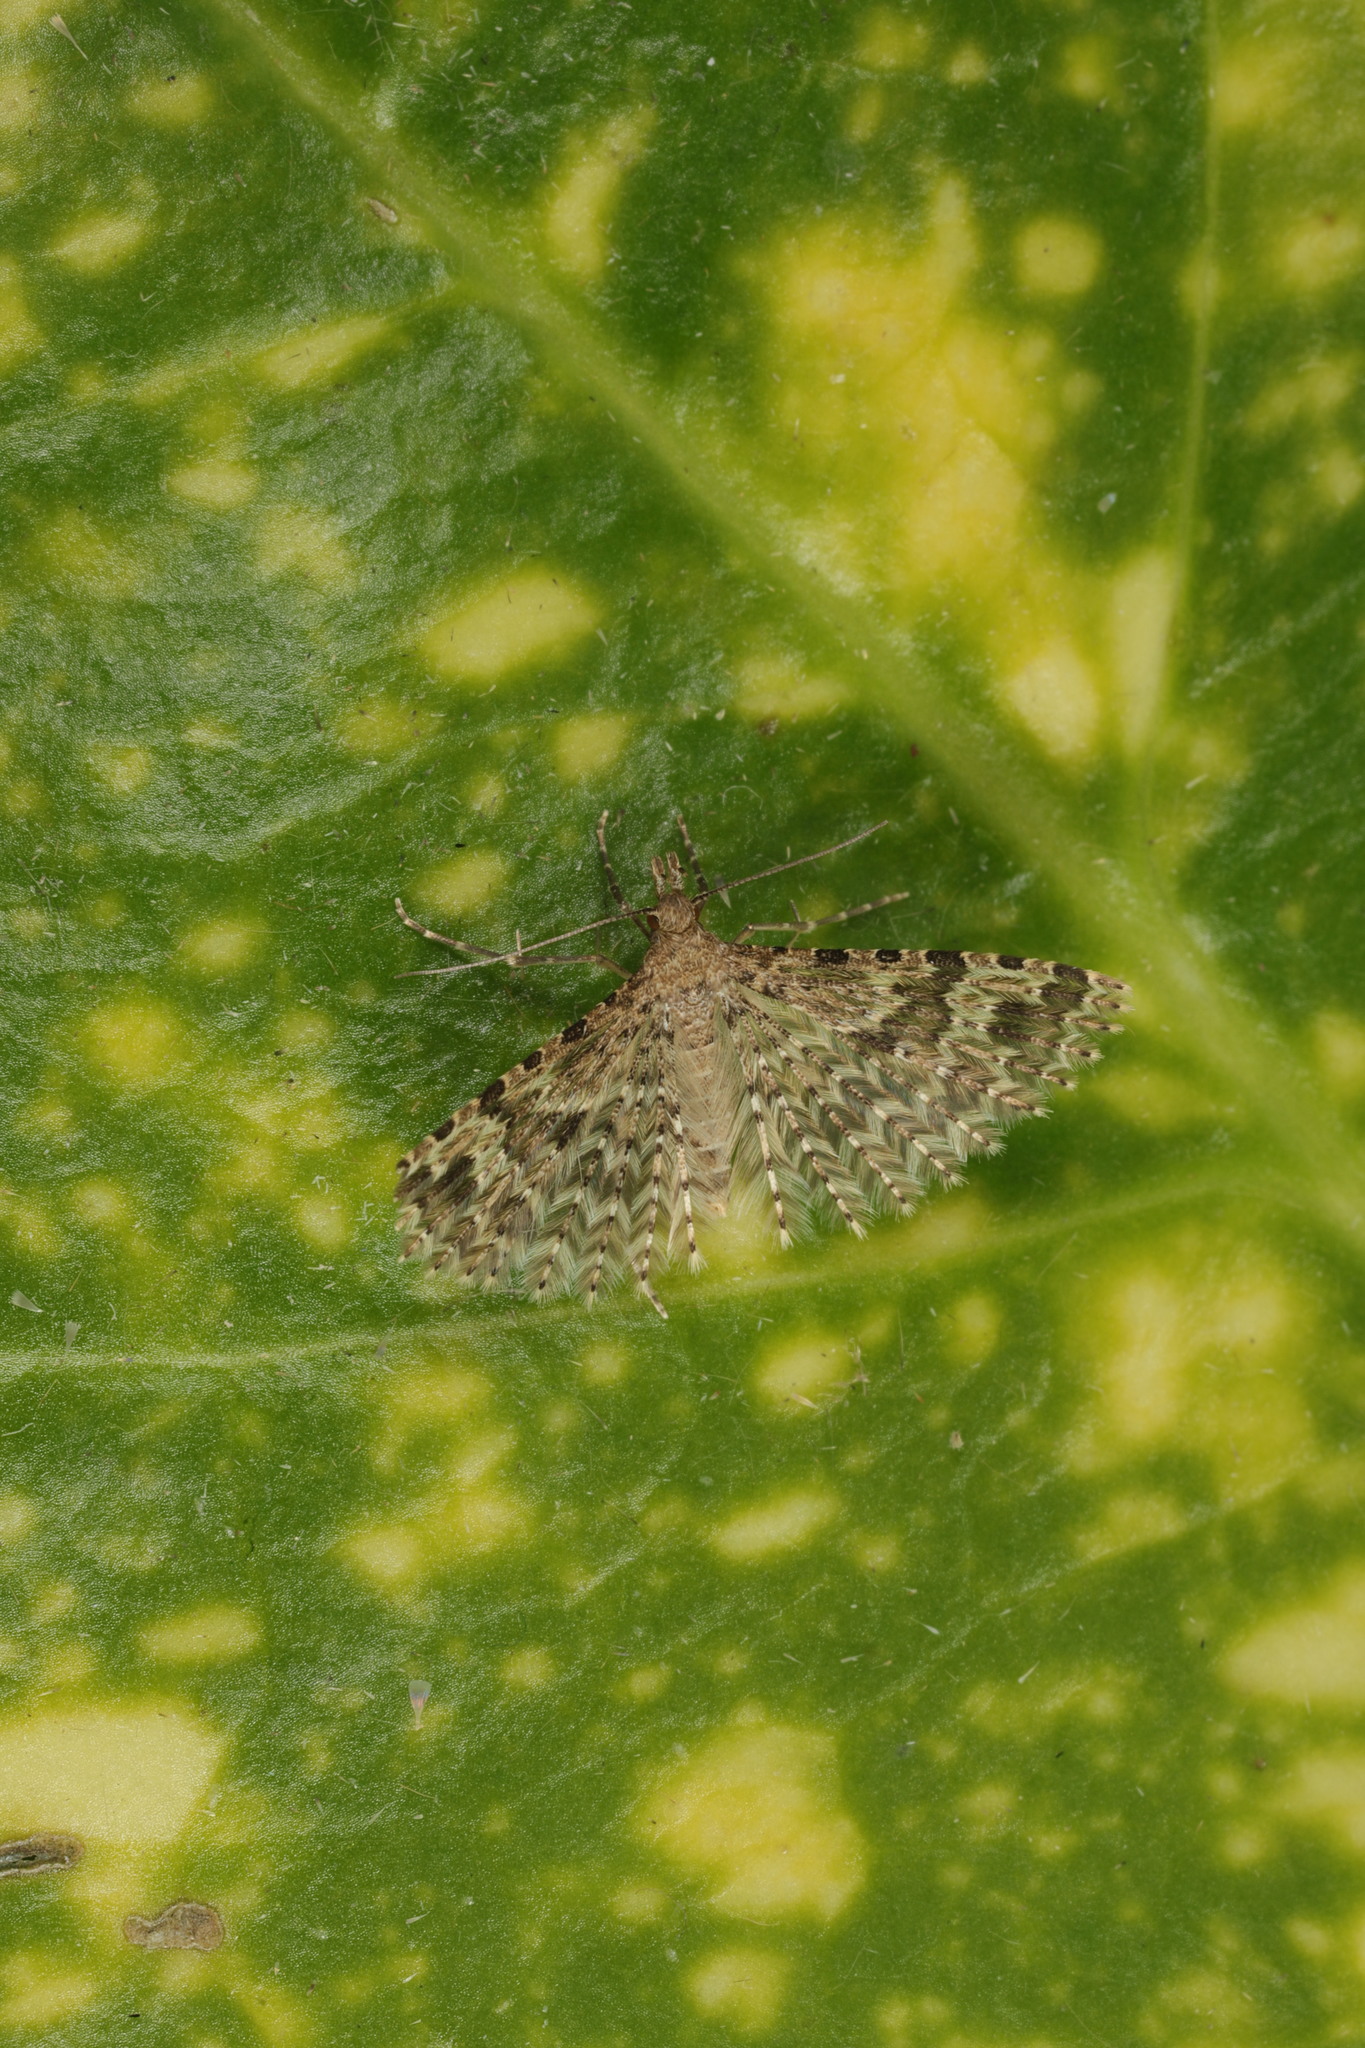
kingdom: Animalia
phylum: Arthropoda
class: Insecta
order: Lepidoptera
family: Alucitidae
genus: Alucita
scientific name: Alucita hexadactyla
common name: Twenty-plume moth
